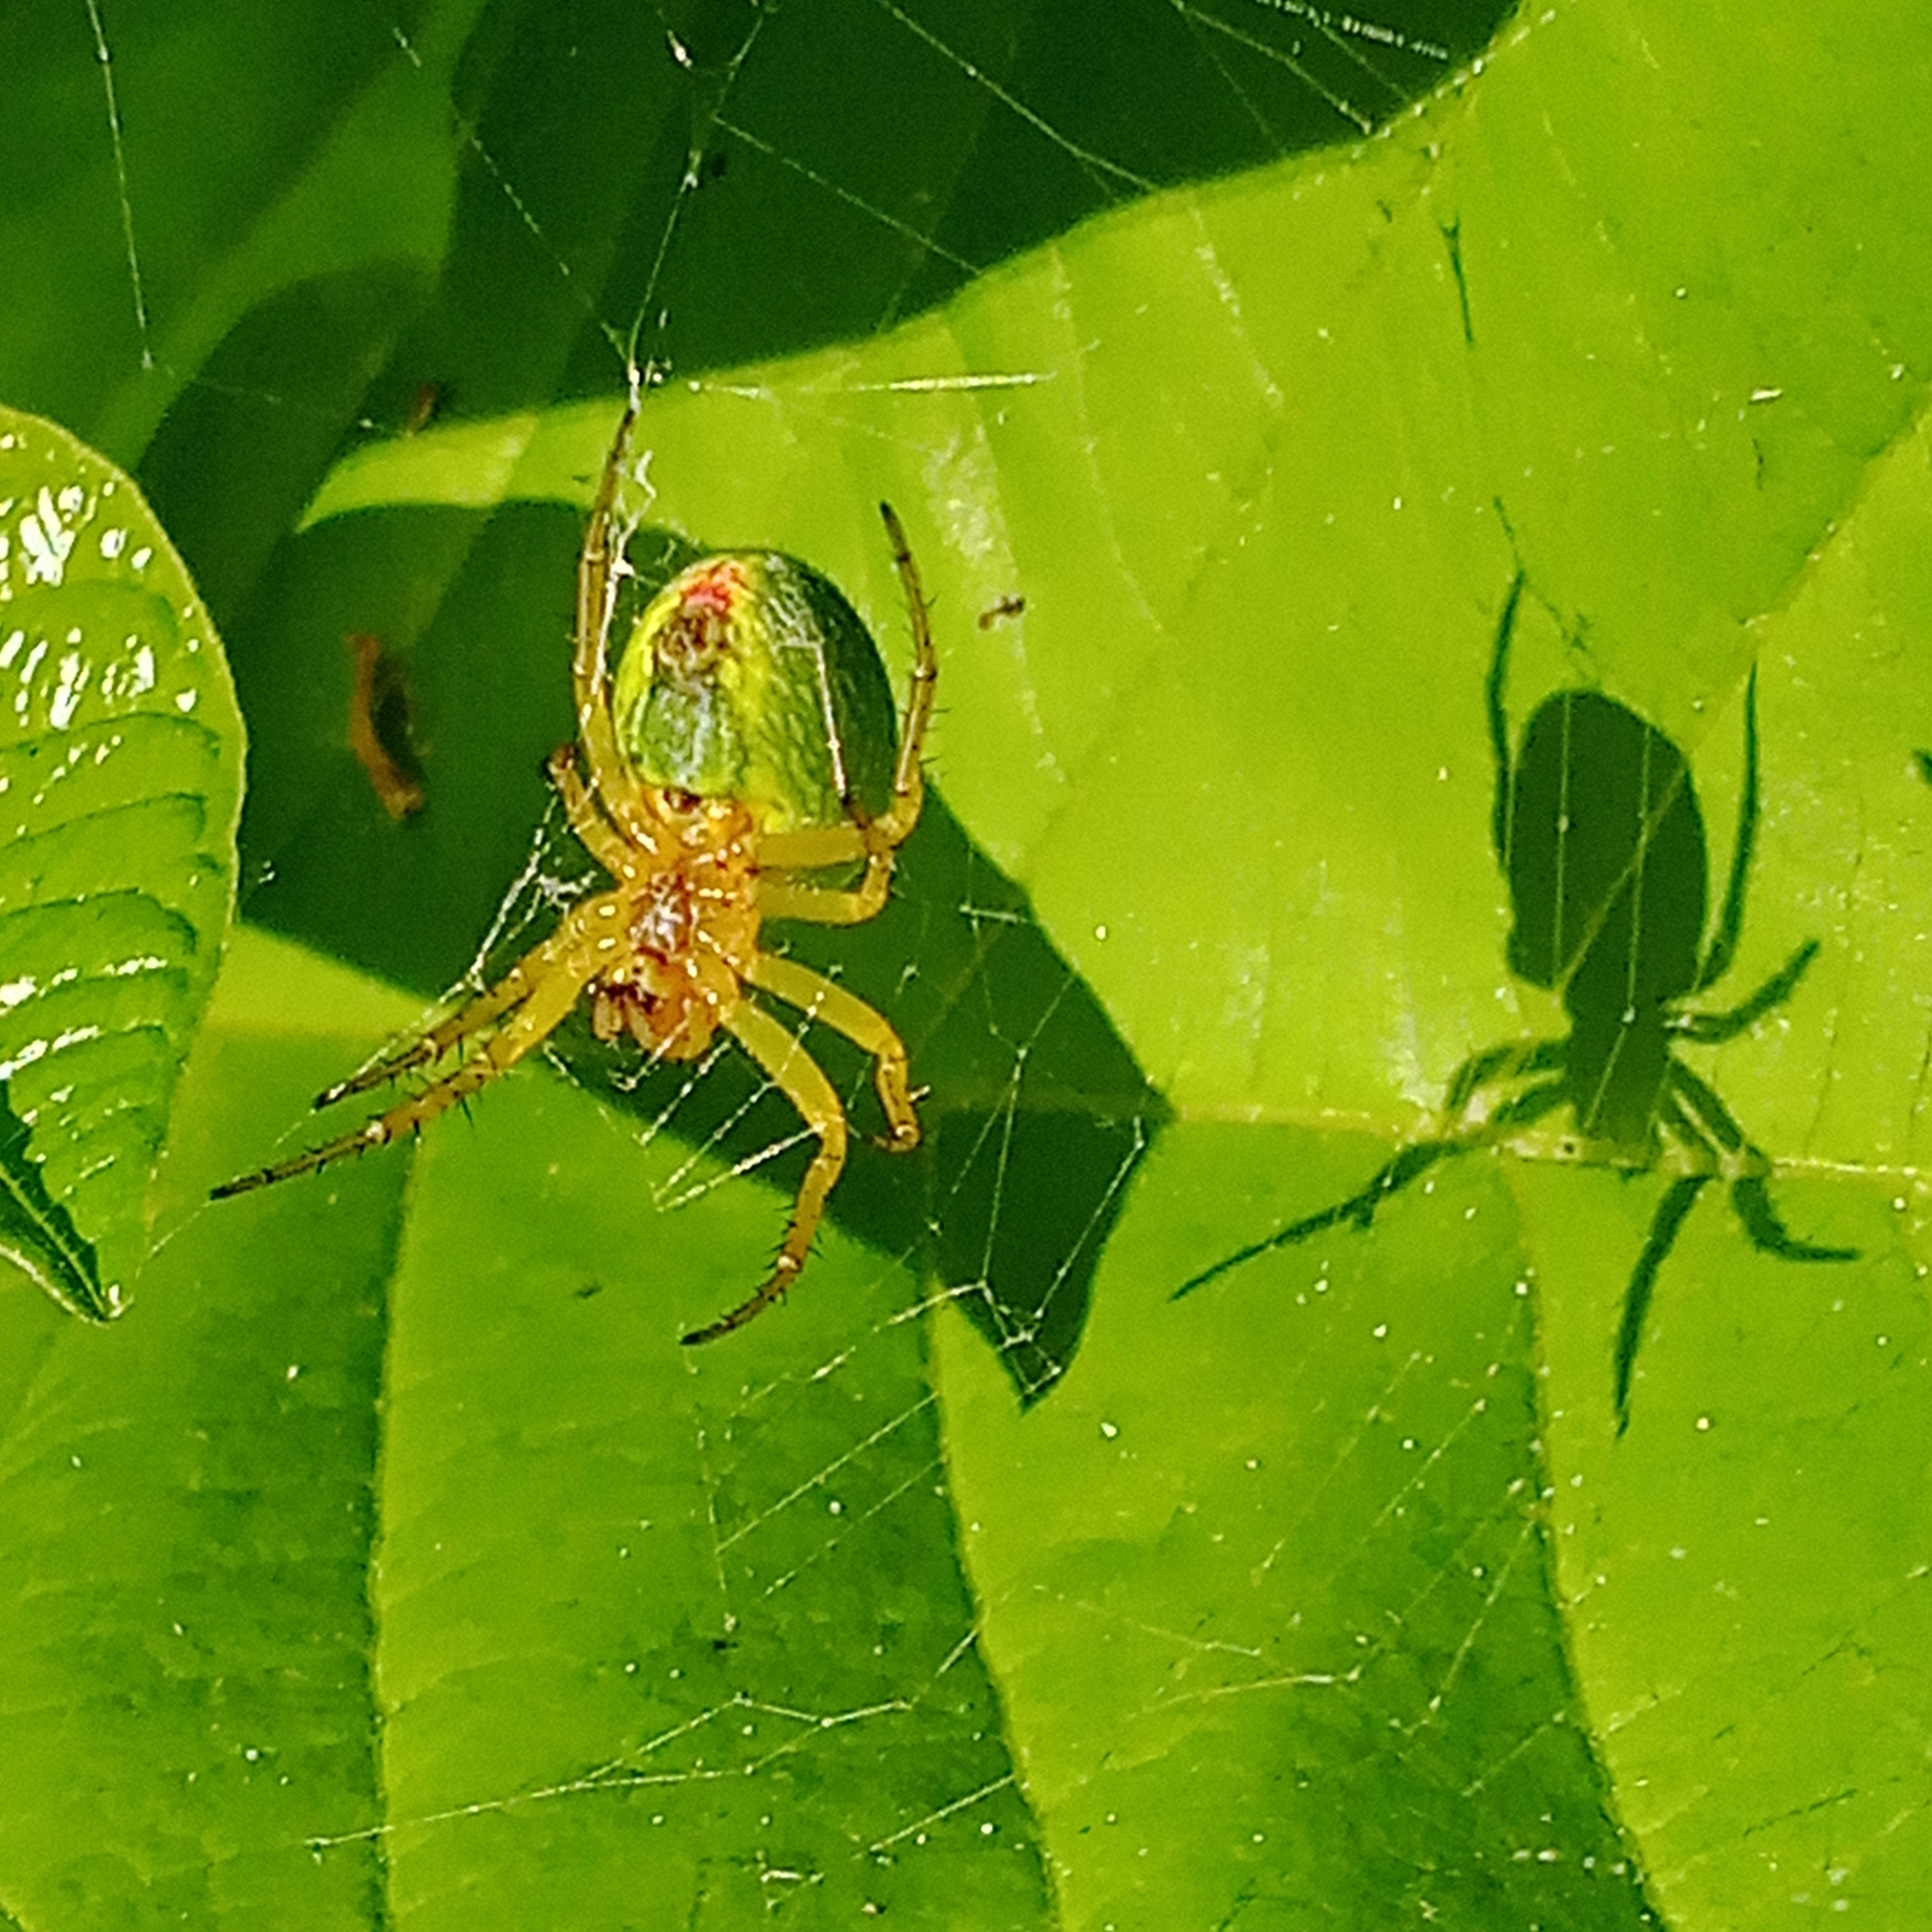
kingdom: Animalia
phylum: Arthropoda
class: Arachnida
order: Araneae
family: Araneidae
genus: Araniella
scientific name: Araniella cucurbitina
